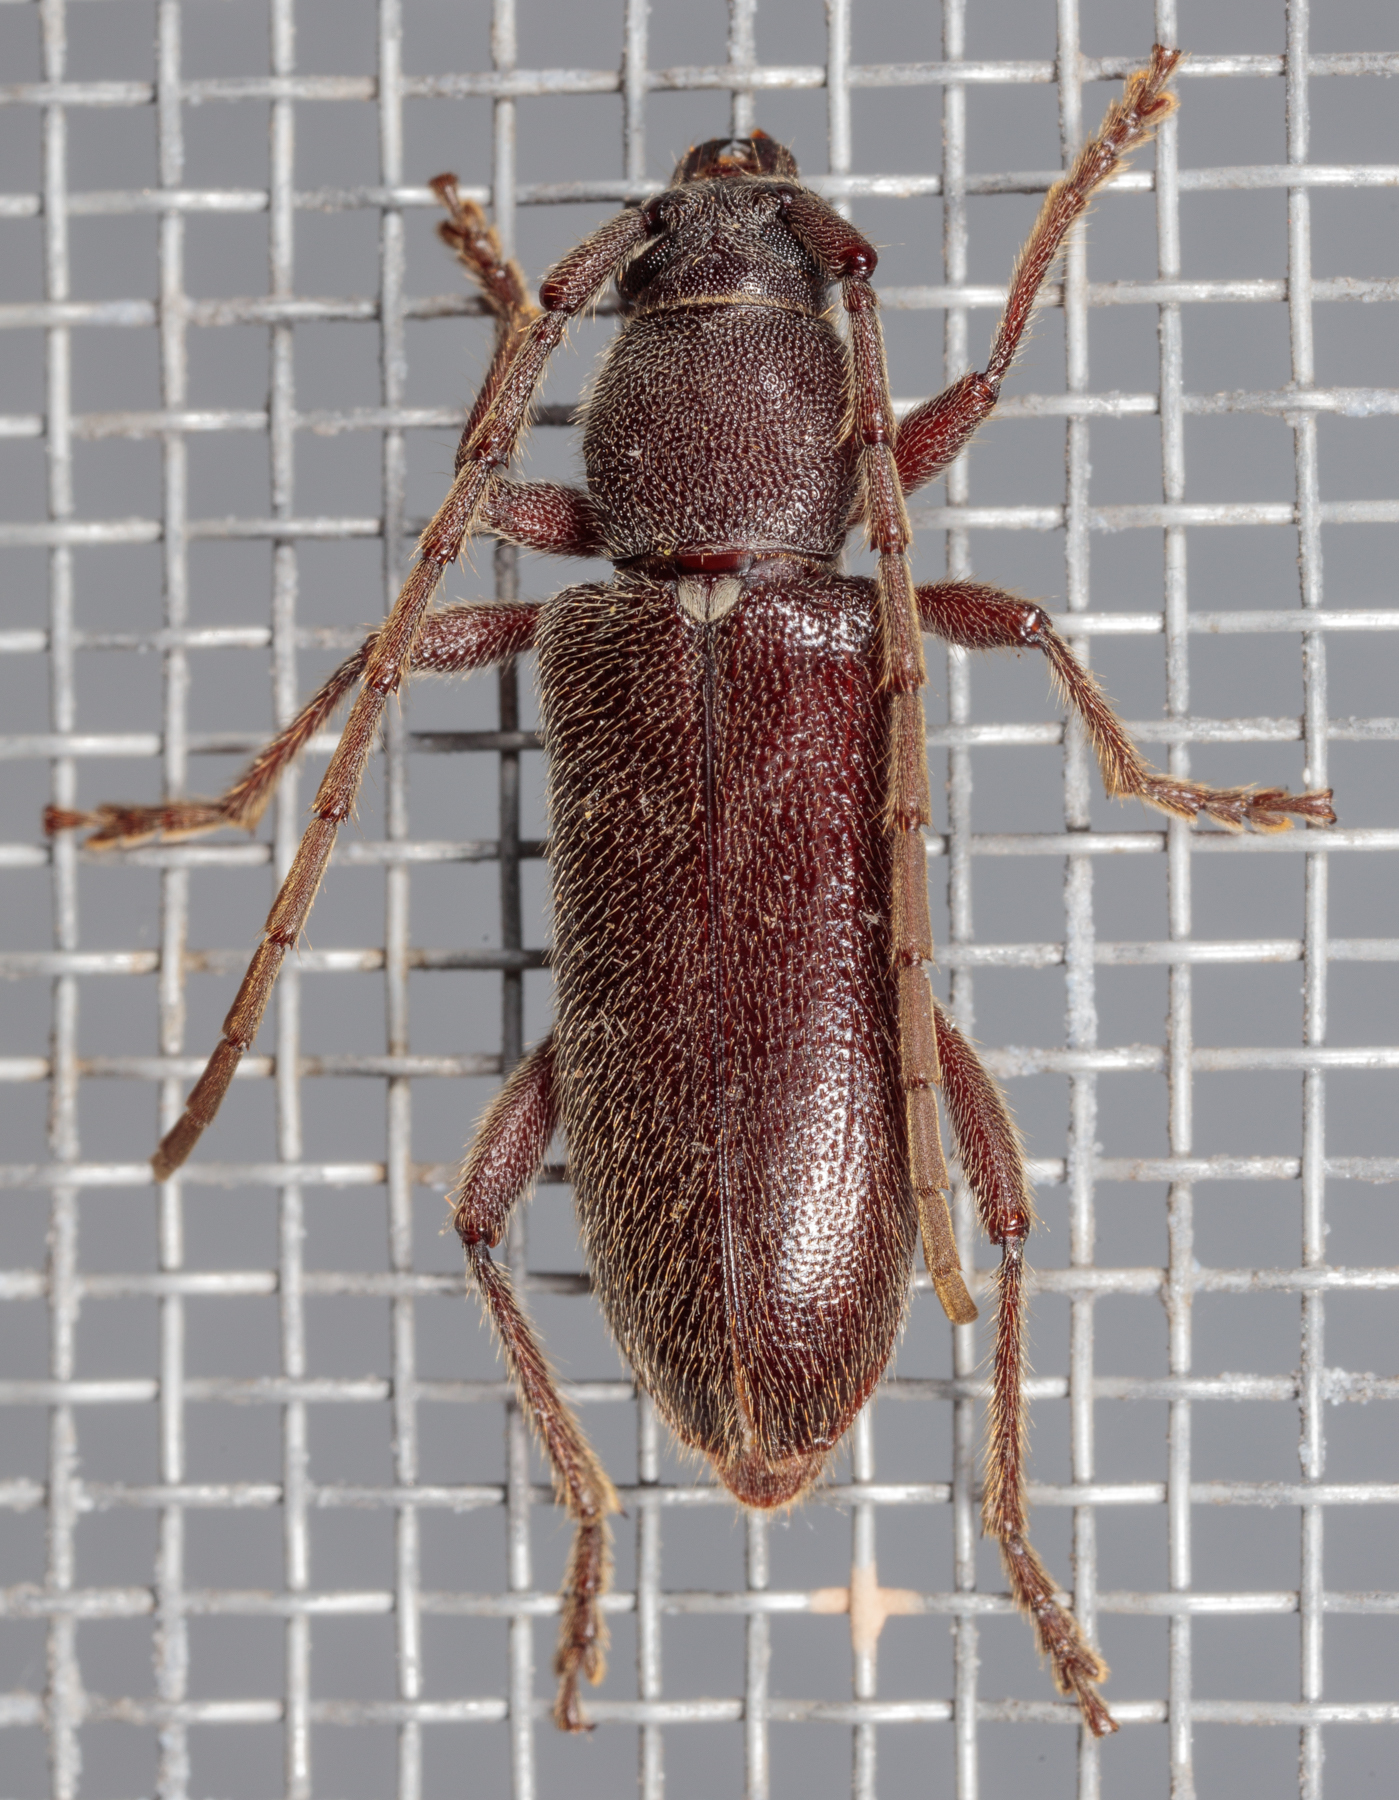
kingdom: Animalia
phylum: Arthropoda
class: Insecta
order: Coleoptera
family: Cerambycidae
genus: Anelaphus
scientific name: Anelaphus moestus
